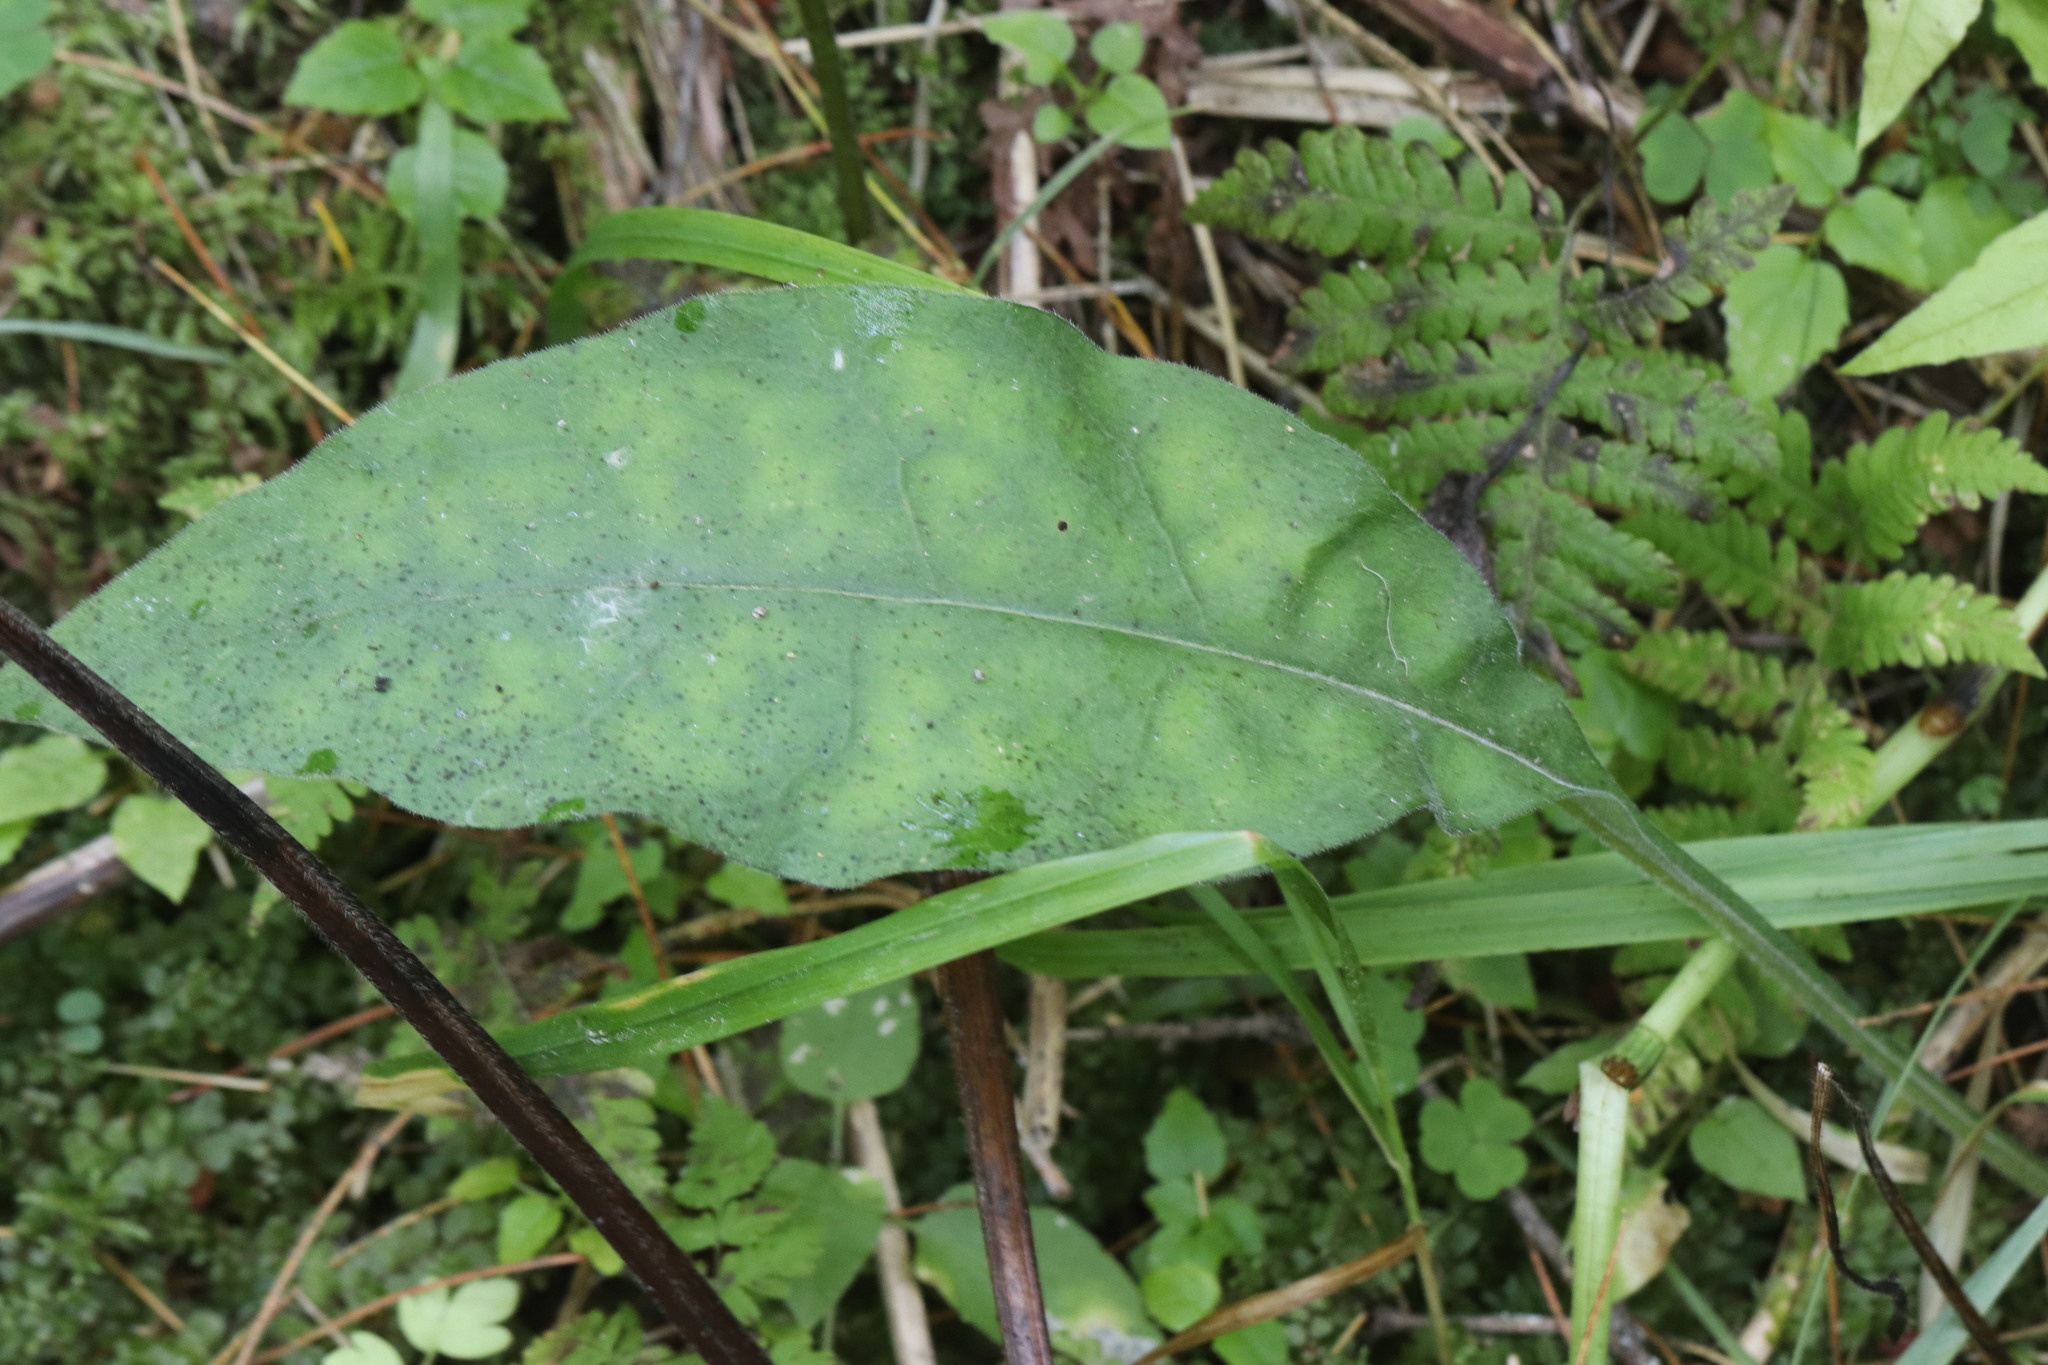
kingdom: Plantae
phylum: Tracheophyta
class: Magnoliopsida
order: Boraginales
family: Boraginaceae
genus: Pulmonaria
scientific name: Pulmonaria mollis
